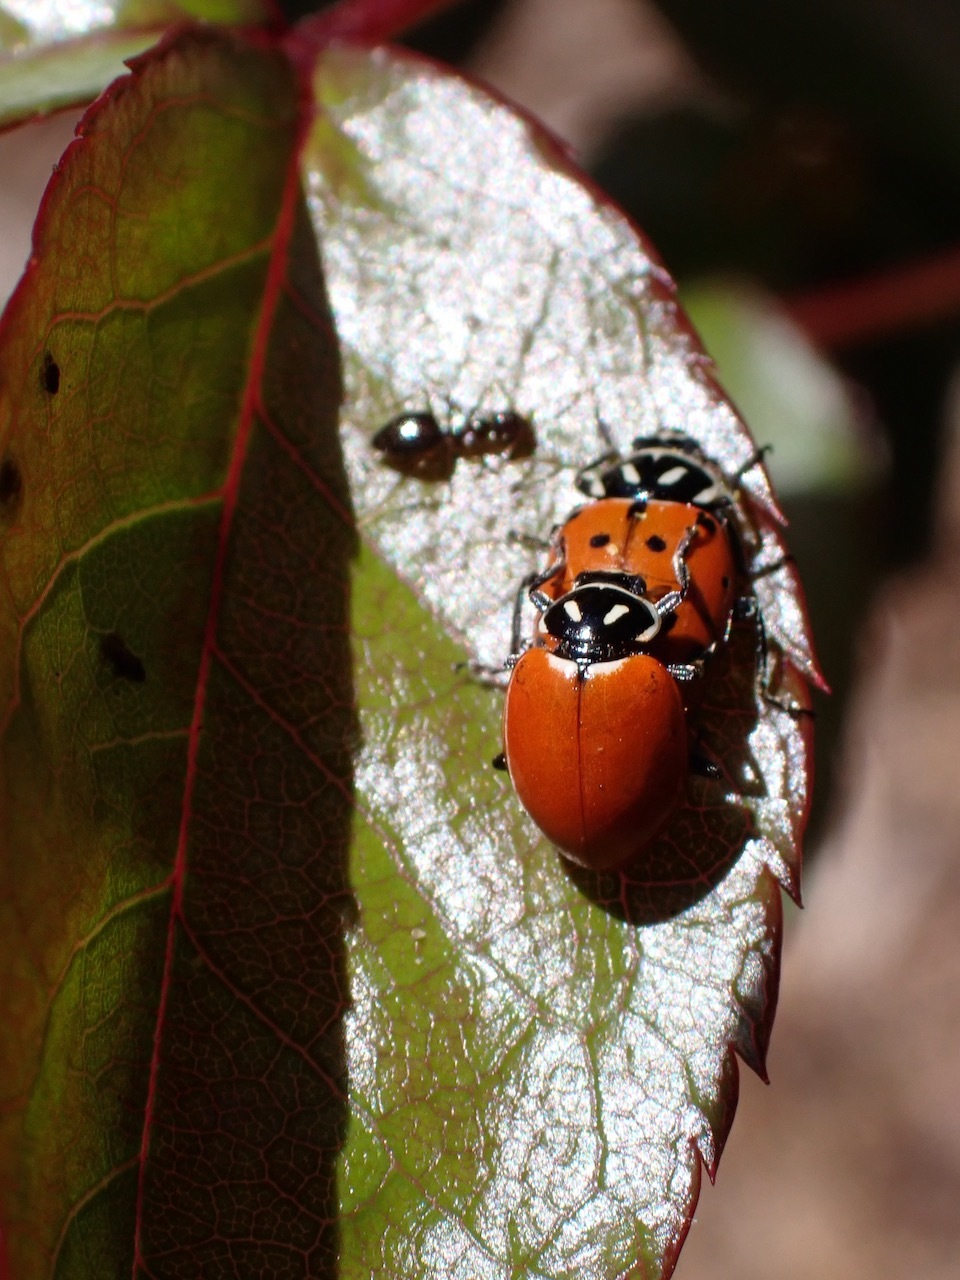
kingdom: Animalia
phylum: Arthropoda
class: Insecta
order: Hymenoptera
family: Formicidae
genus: Prenolepis
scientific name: Prenolepis imparis
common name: Small honey ant
